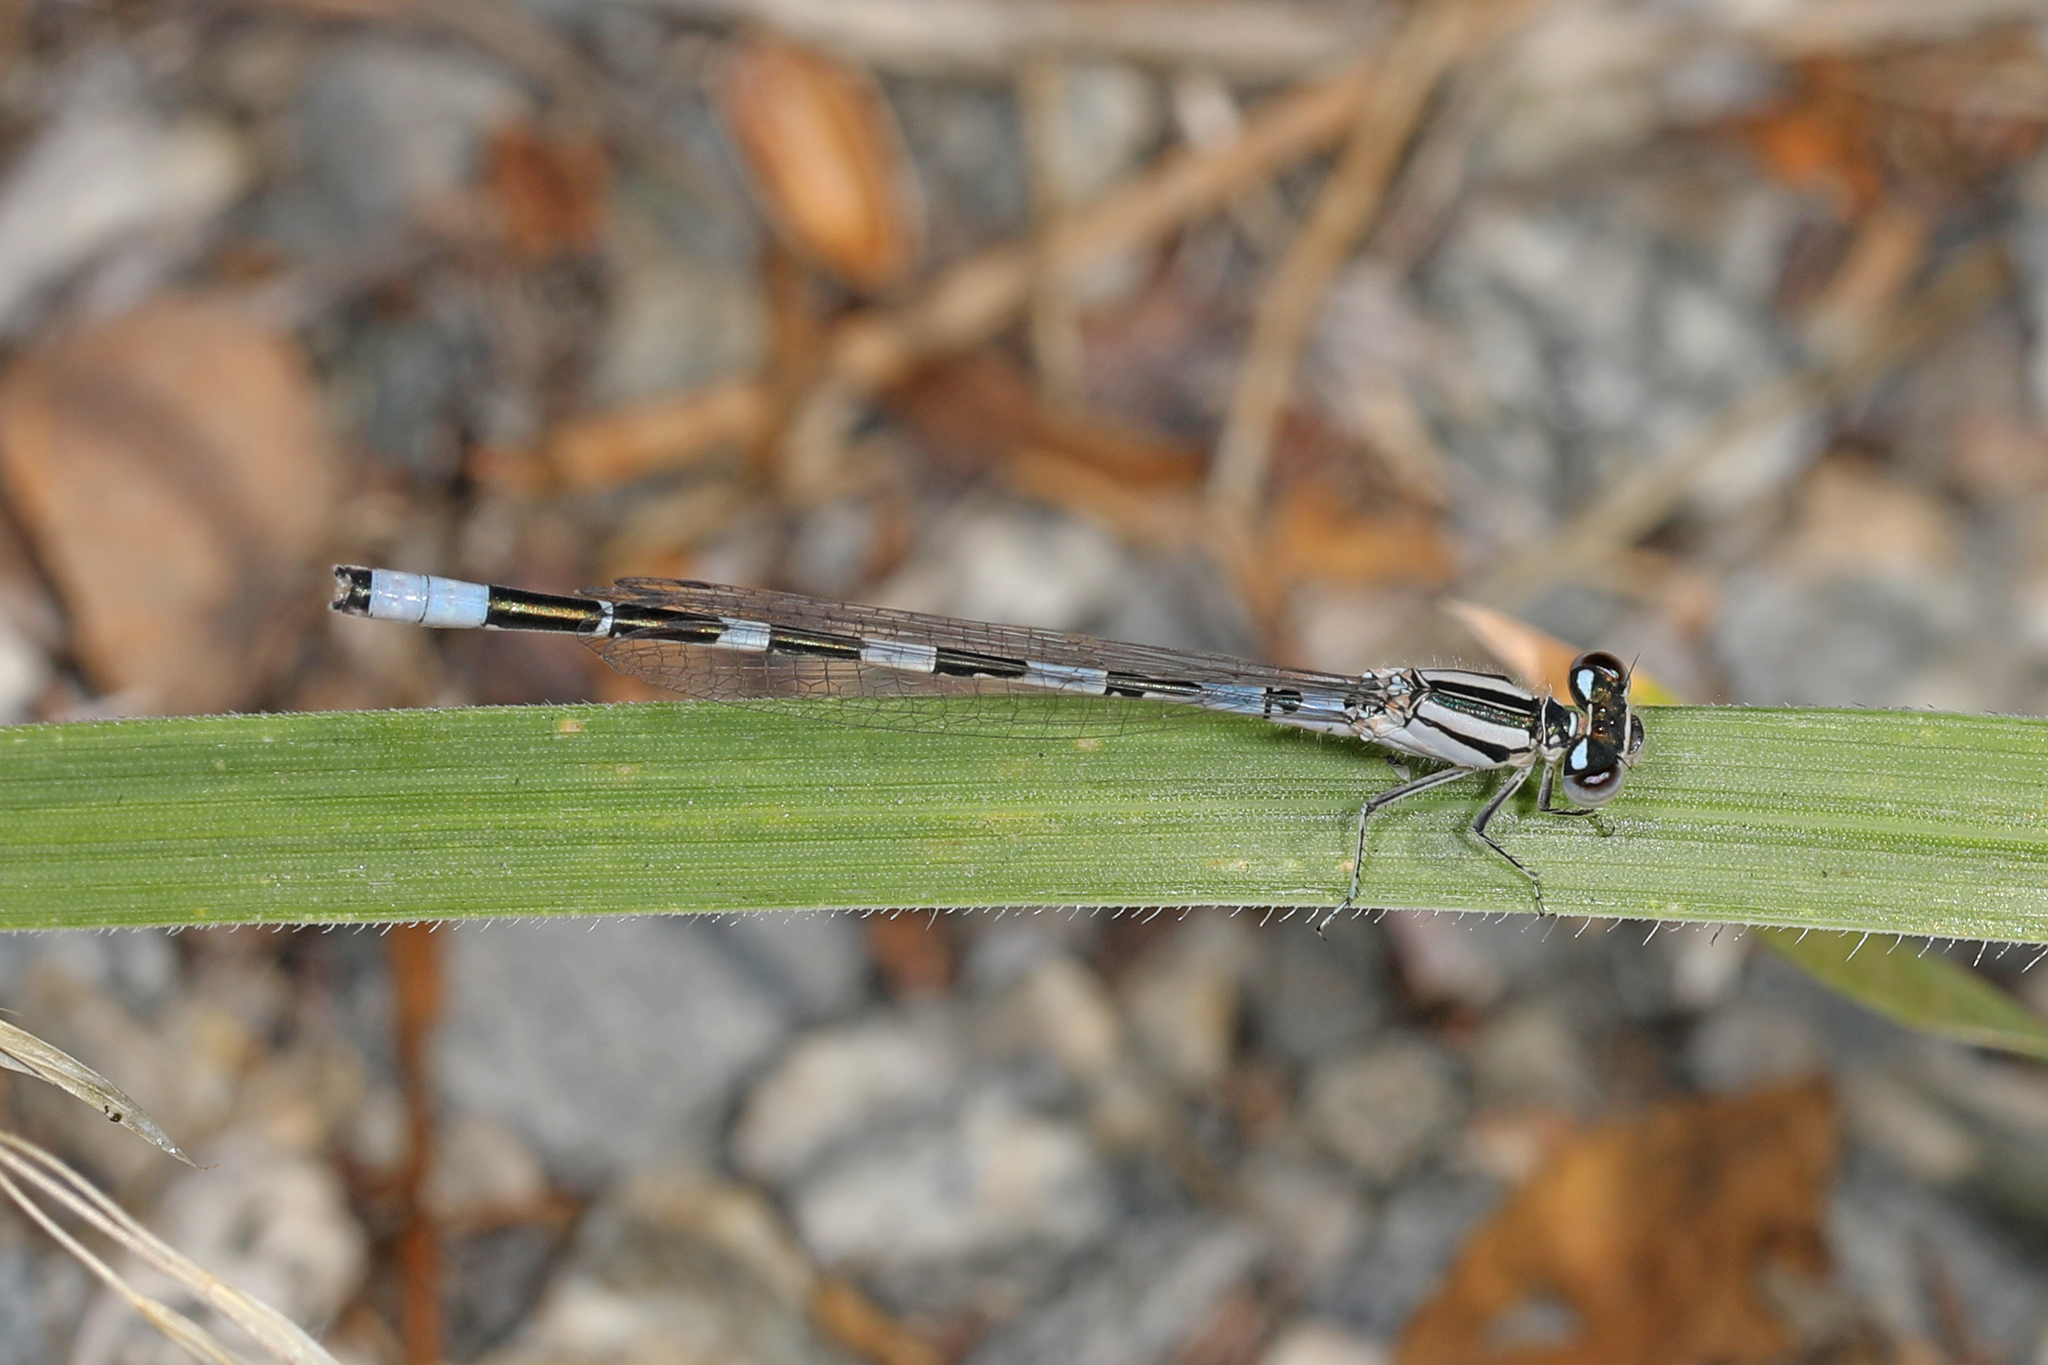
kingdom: Animalia
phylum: Arthropoda
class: Insecta
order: Odonata
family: Coenagrionidae
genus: Enallagma
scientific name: Enallagma carunculatum
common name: Tule bluet
